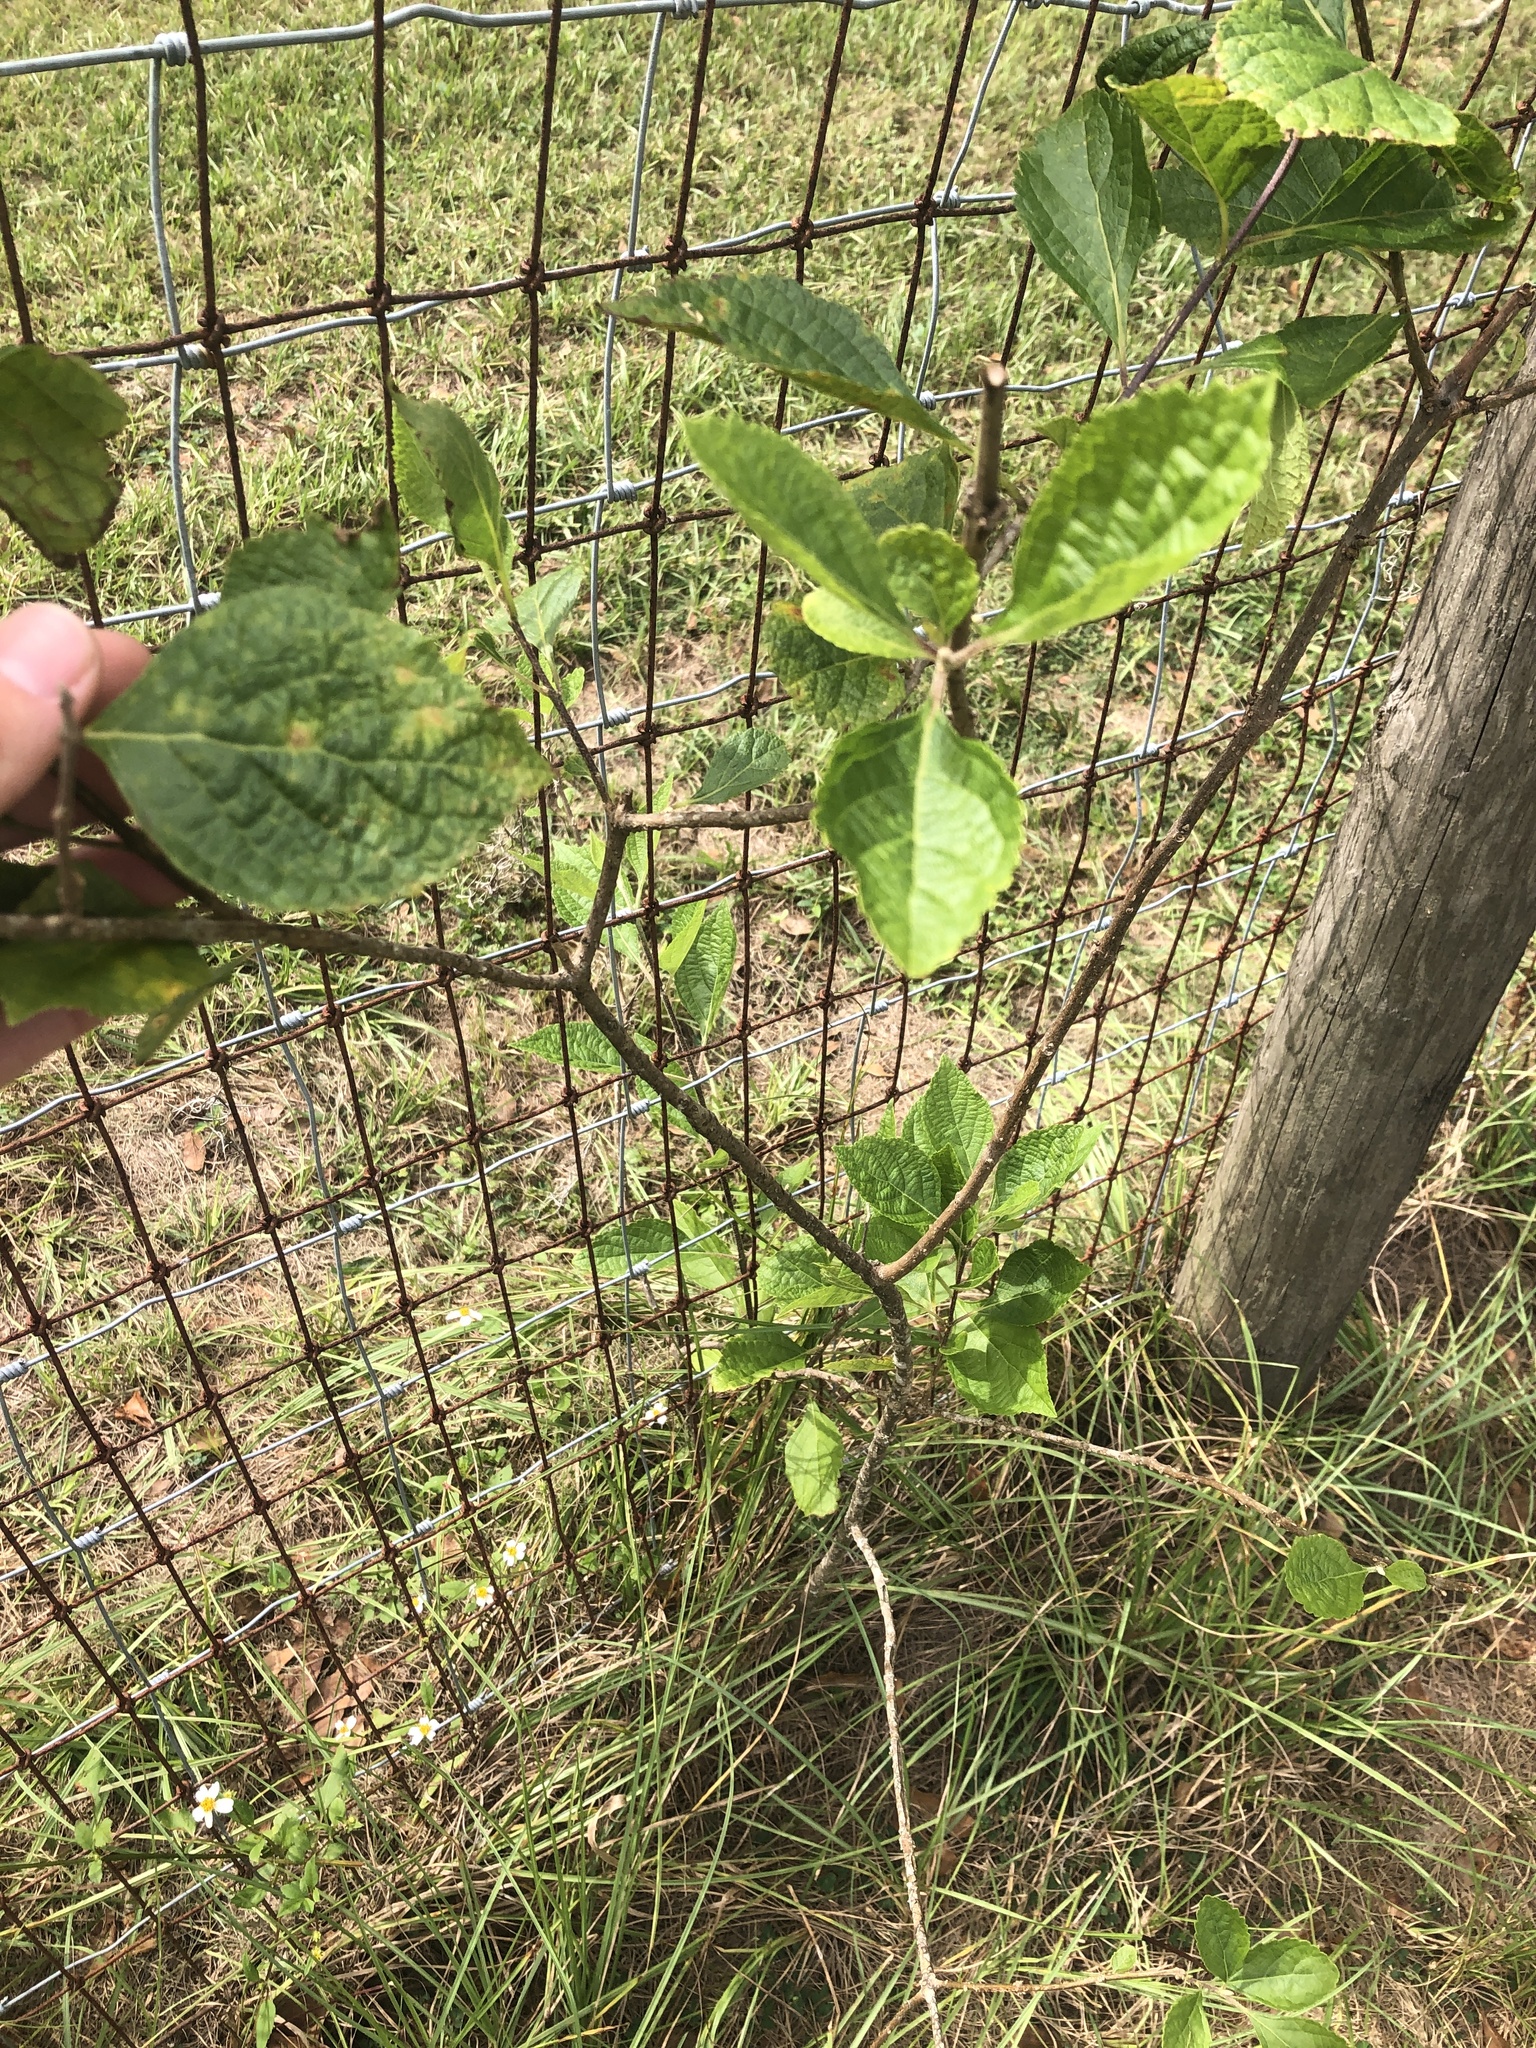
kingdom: Plantae
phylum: Tracheophyta
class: Magnoliopsida
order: Lamiales
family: Lamiaceae
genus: Callicarpa
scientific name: Callicarpa americana
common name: American beautyberry
